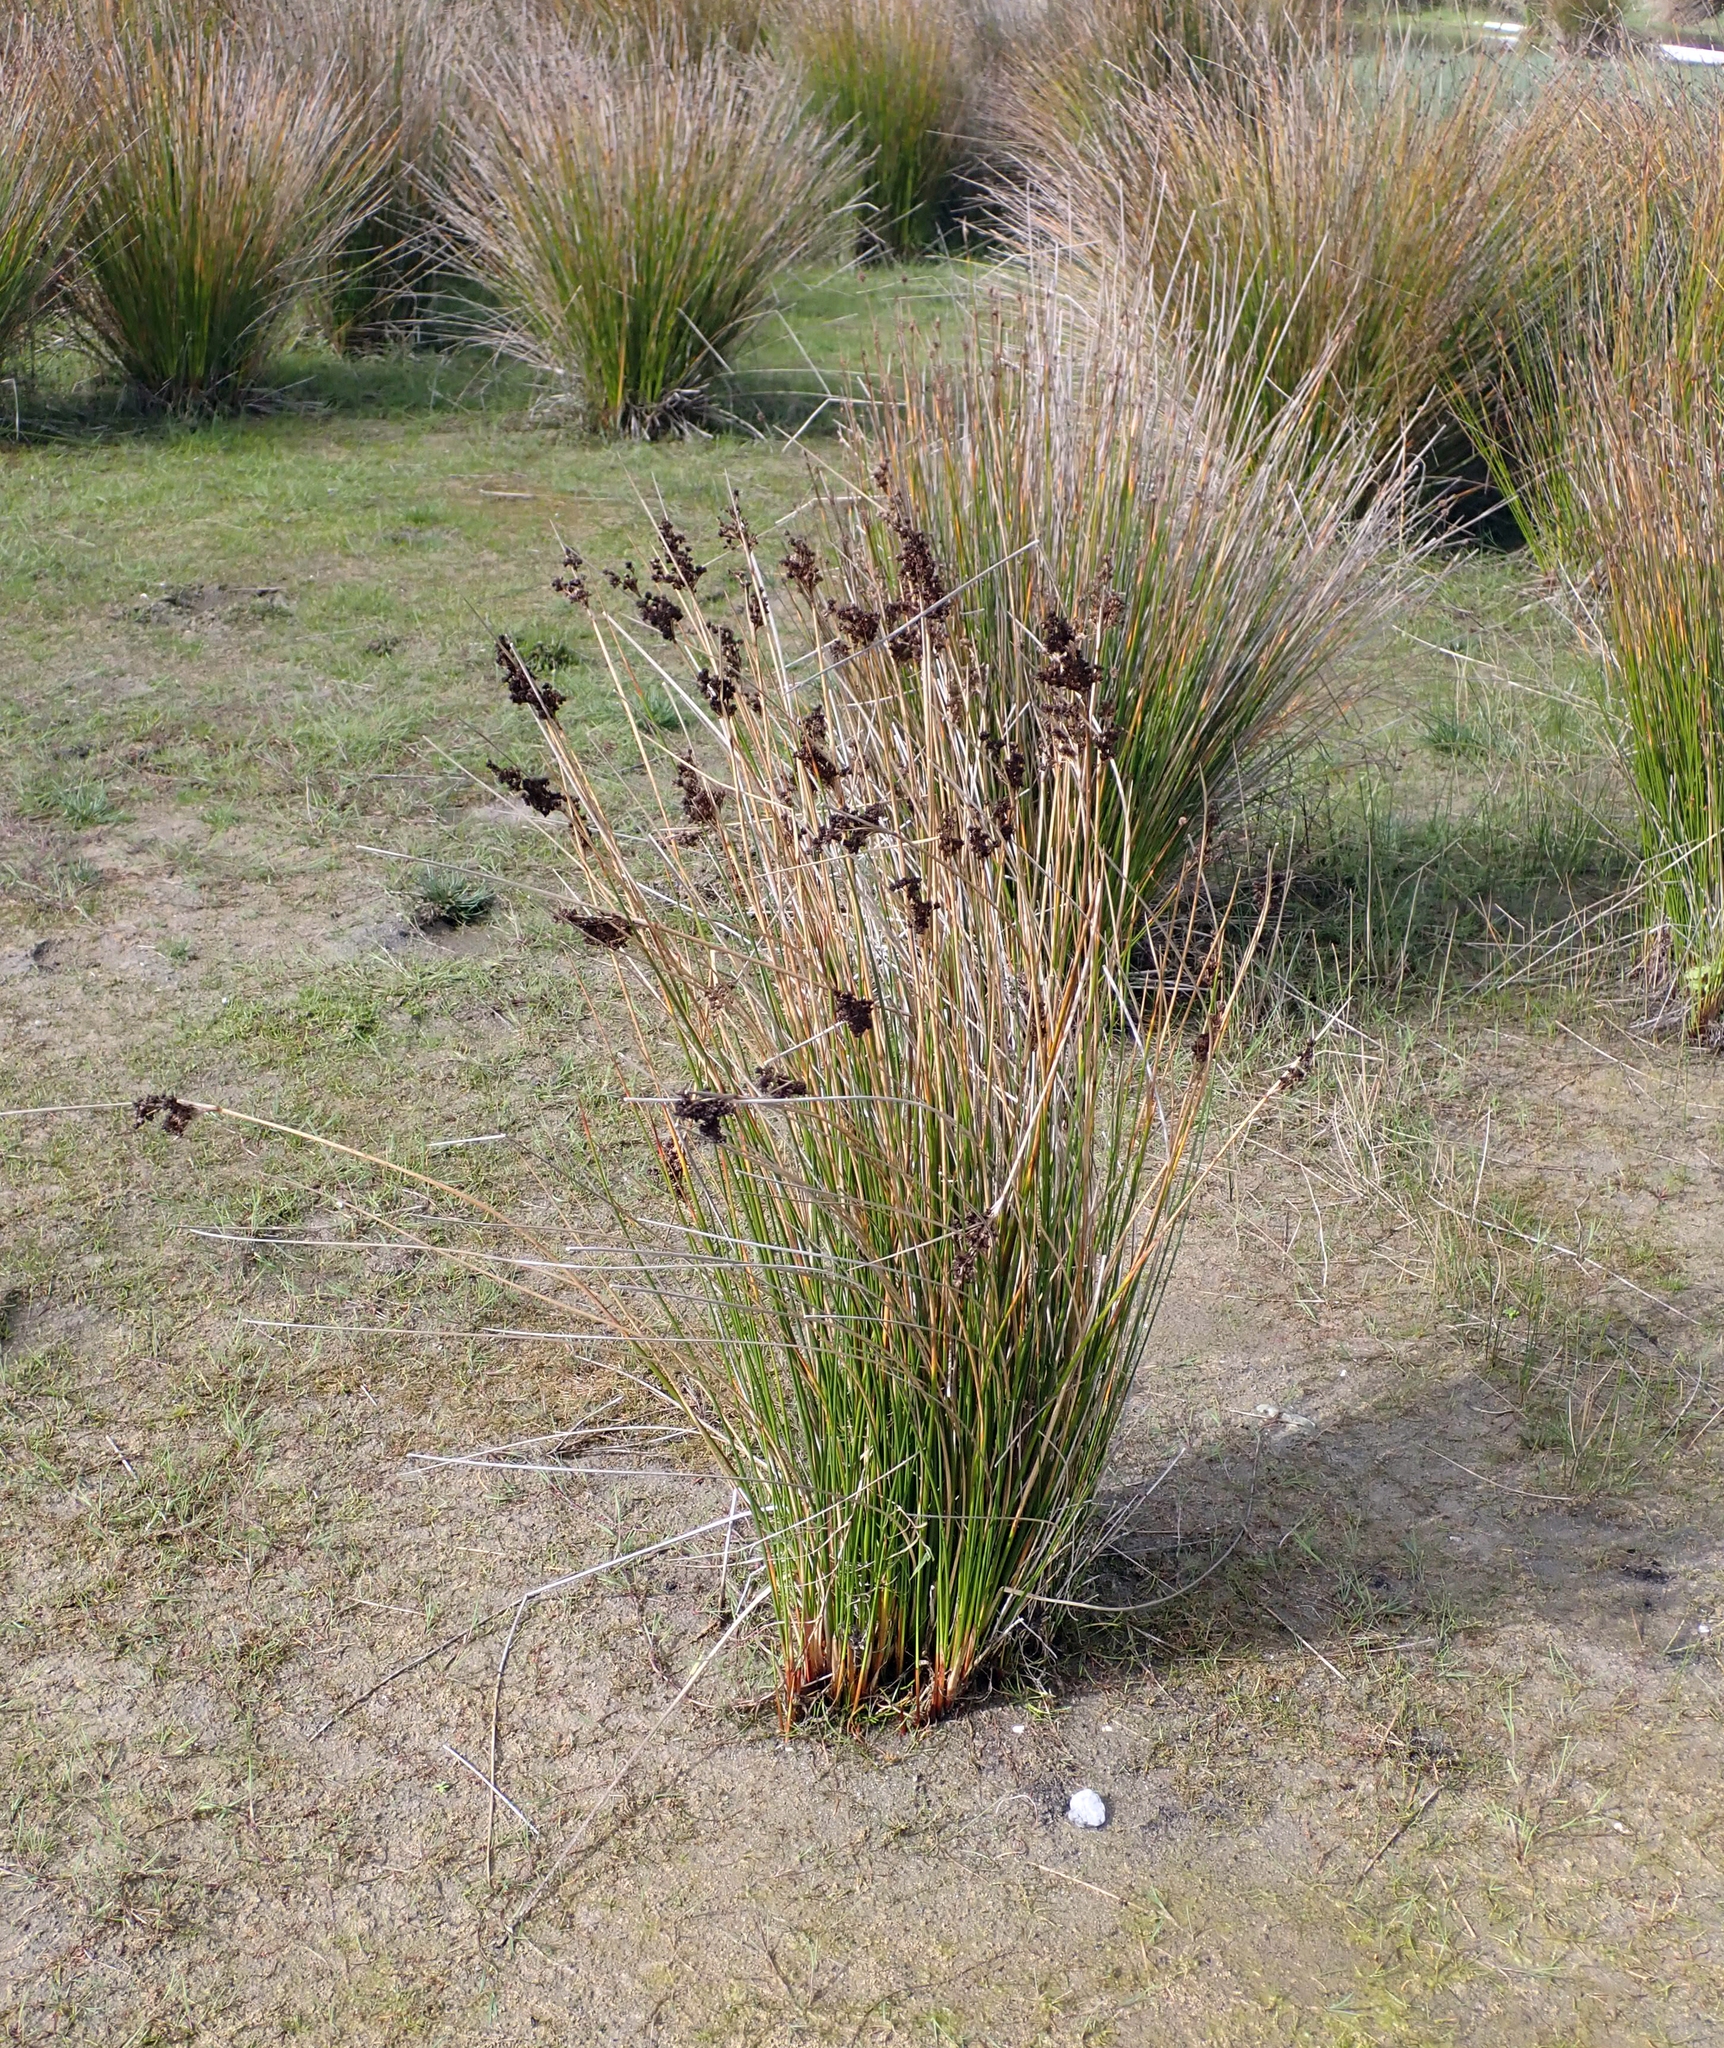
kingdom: Plantae
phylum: Tracheophyta
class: Liliopsida
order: Poales
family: Juncaceae
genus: Juncus
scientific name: Juncus kraussii
